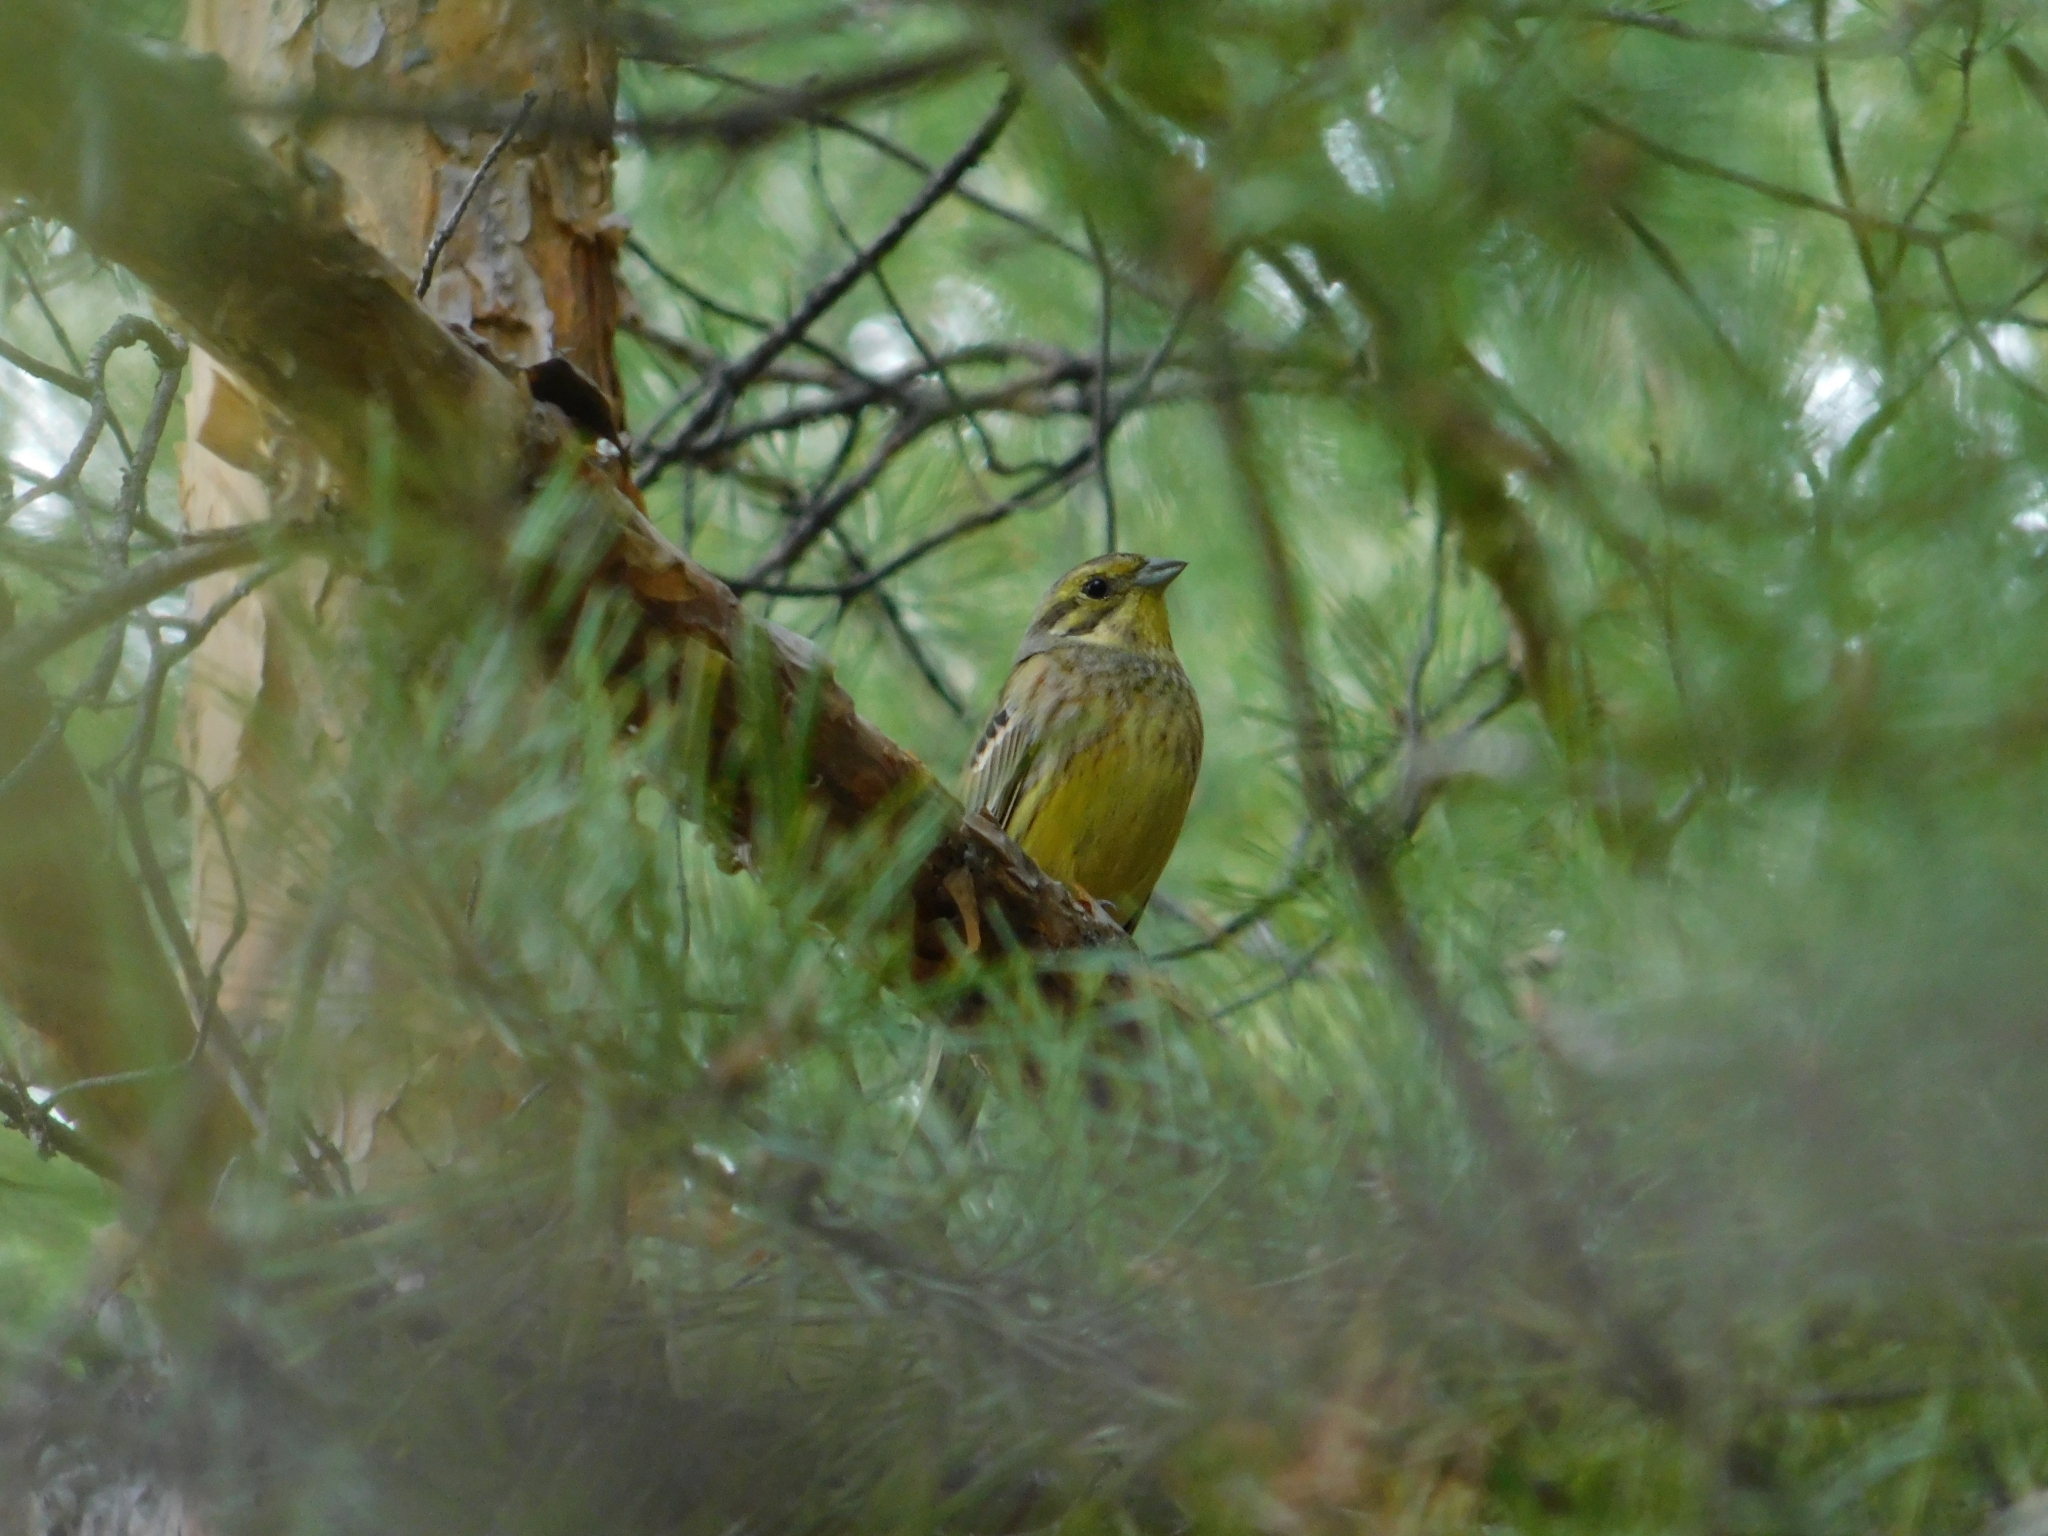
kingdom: Animalia
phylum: Chordata
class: Aves
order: Passeriformes
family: Emberizidae
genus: Emberiza
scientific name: Emberiza citrinella
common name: Yellowhammer
